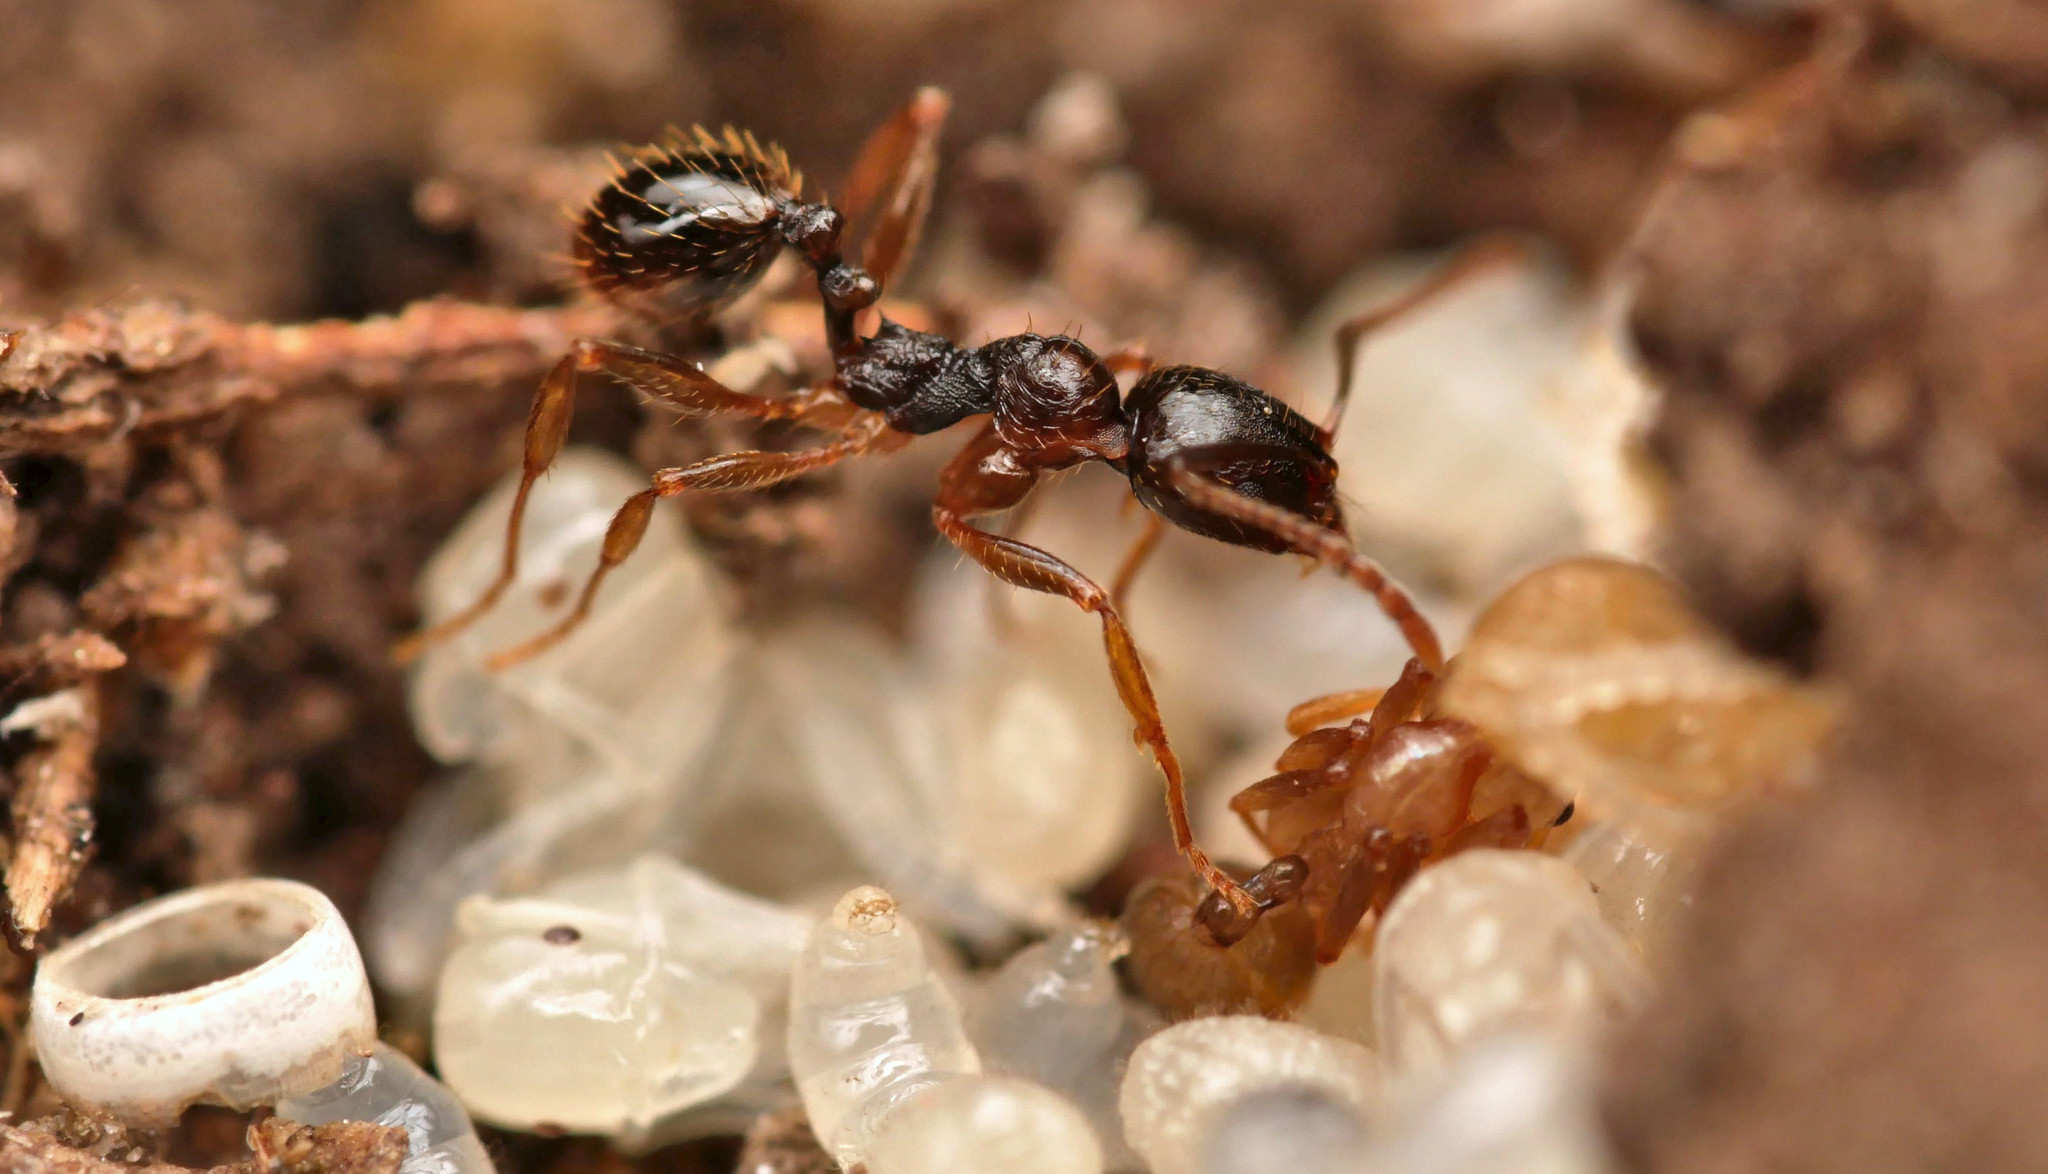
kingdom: Animalia
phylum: Arthropoda
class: Insecta
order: Hymenoptera
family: Formicidae
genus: Aphaenogaster
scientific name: Aphaenogaster gibbosa
